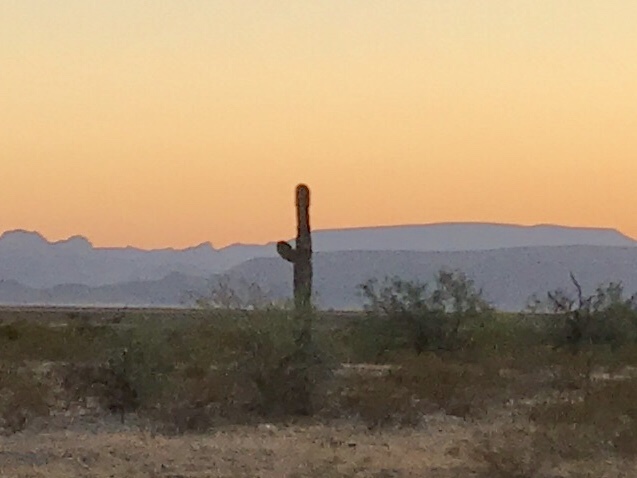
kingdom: Plantae
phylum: Tracheophyta
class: Magnoliopsida
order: Caryophyllales
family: Cactaceae
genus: Carnegiea
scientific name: Carnegiea gigantea
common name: Saguaro
